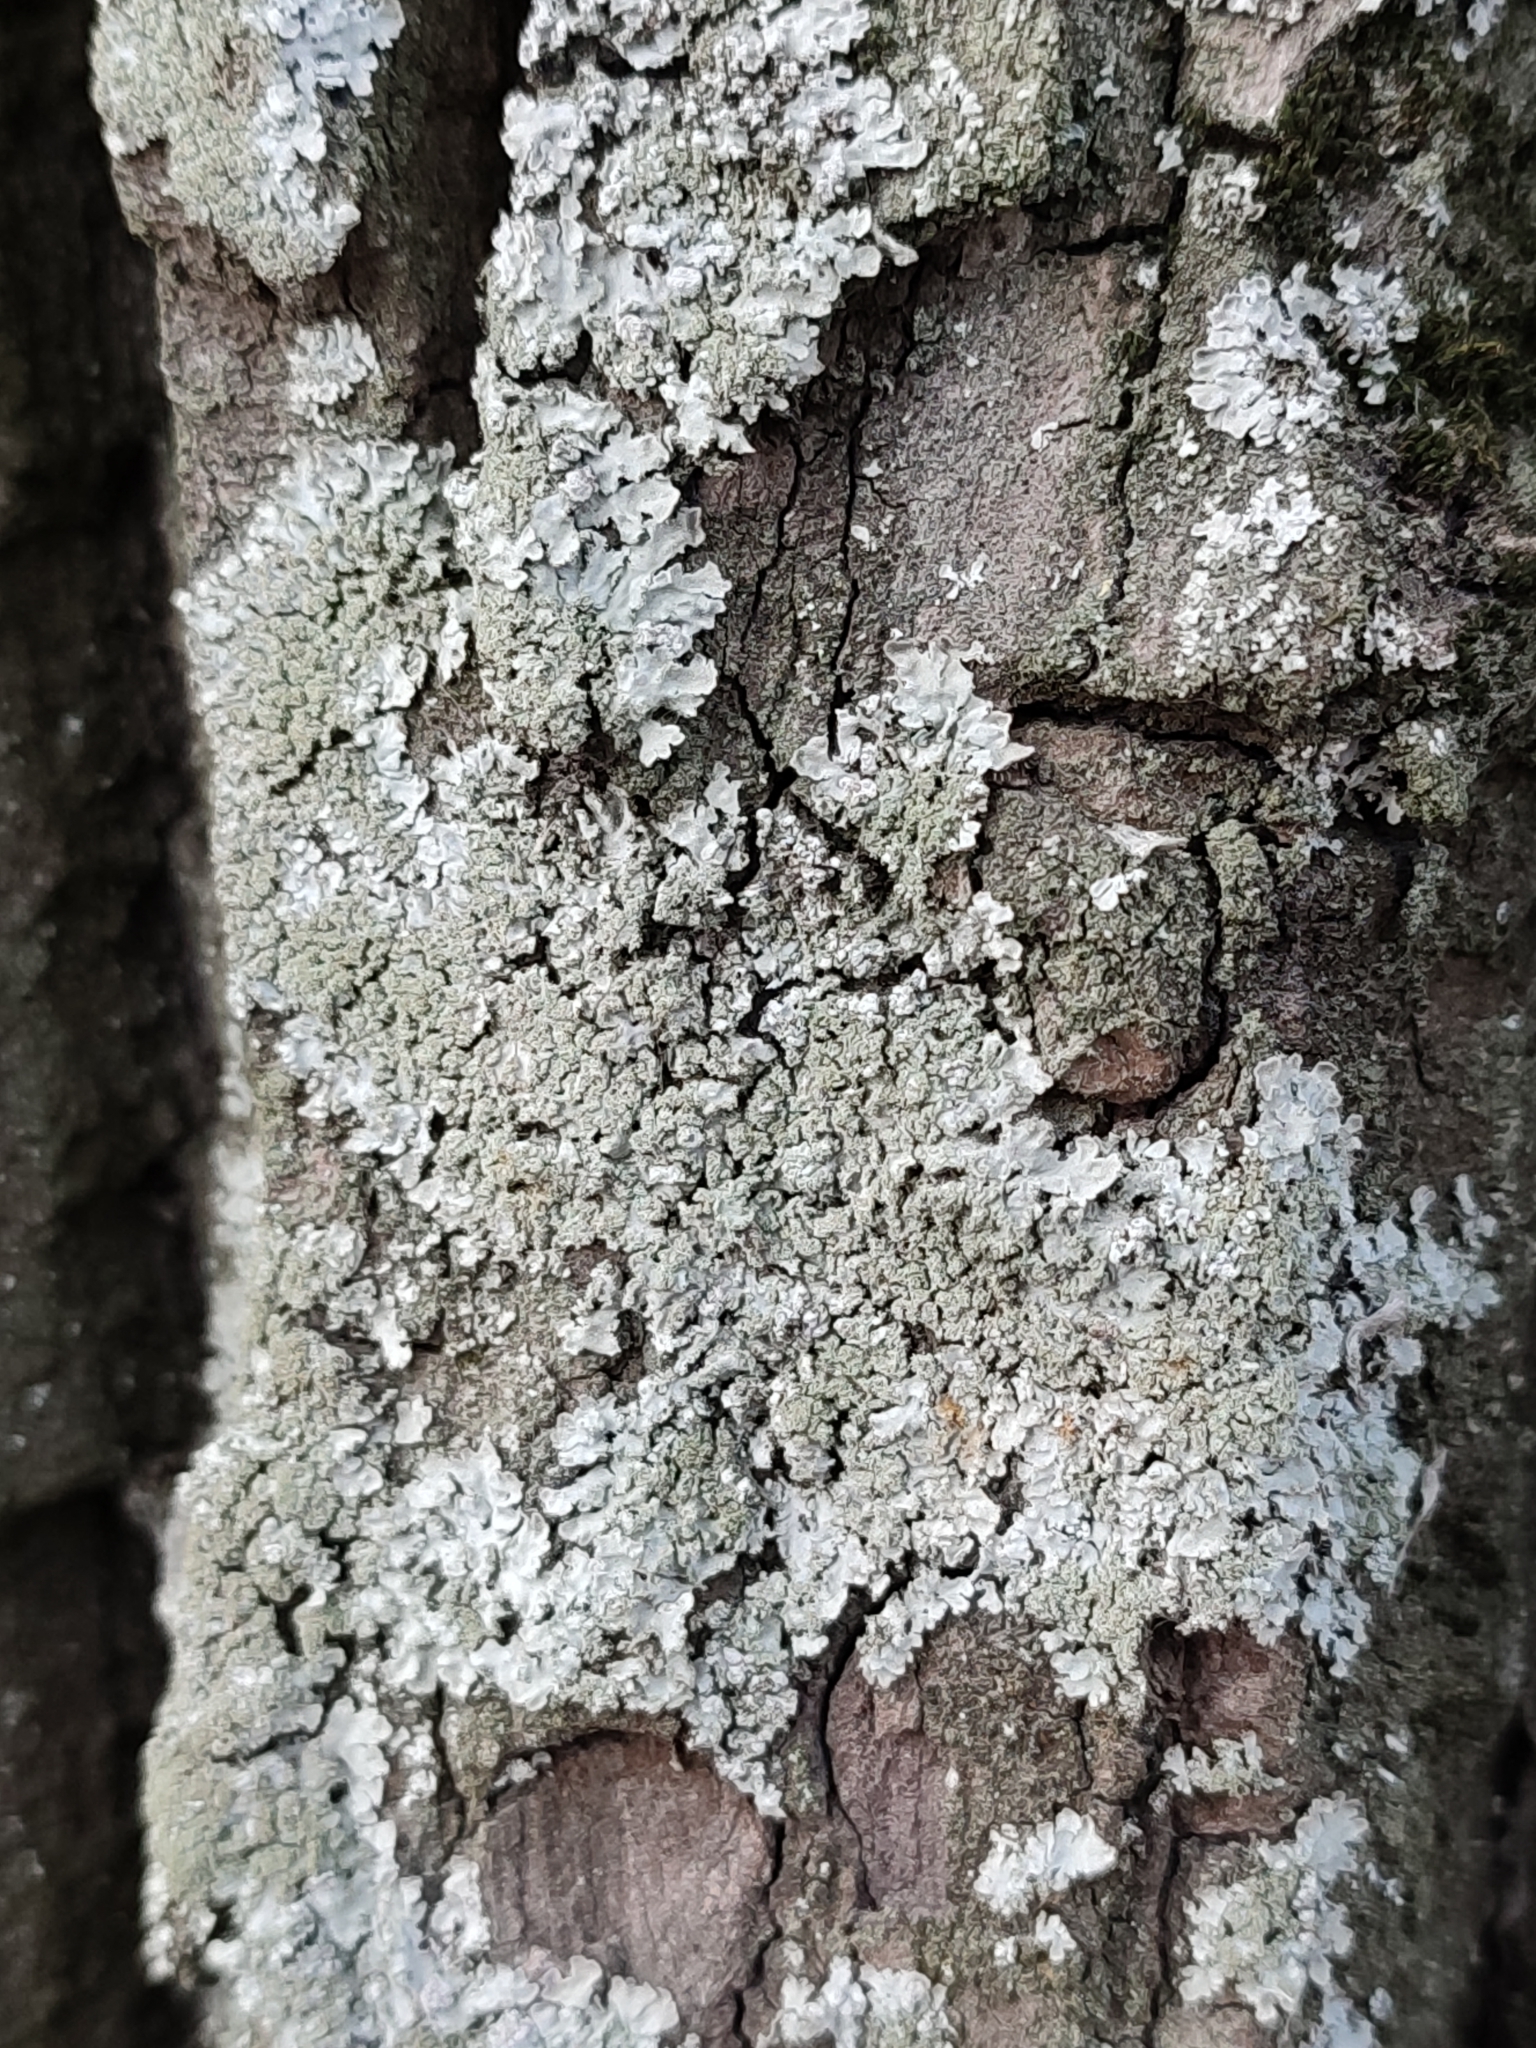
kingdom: Fungi
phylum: Ascomycota
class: Lecanoromycetes
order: Caliciales
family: Physciaceae
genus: Poeltonia
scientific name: Poeltonia grisea
